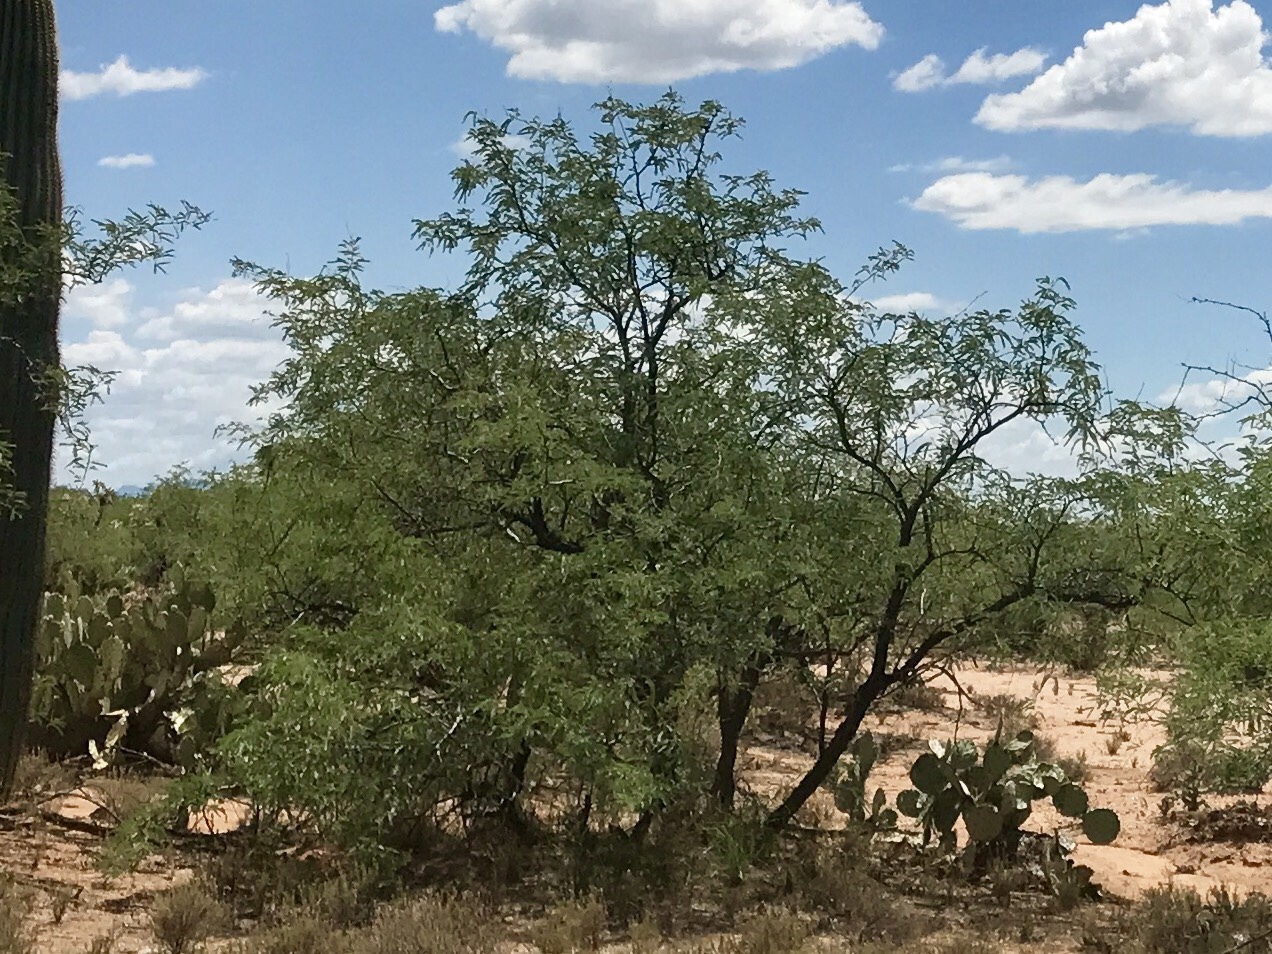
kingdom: Plantae
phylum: Tracheophyta
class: Magnoliopsida
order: Fabales
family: Fabaceae
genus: Prosopis
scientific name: Prosopis velutina
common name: Velvet mesquite
